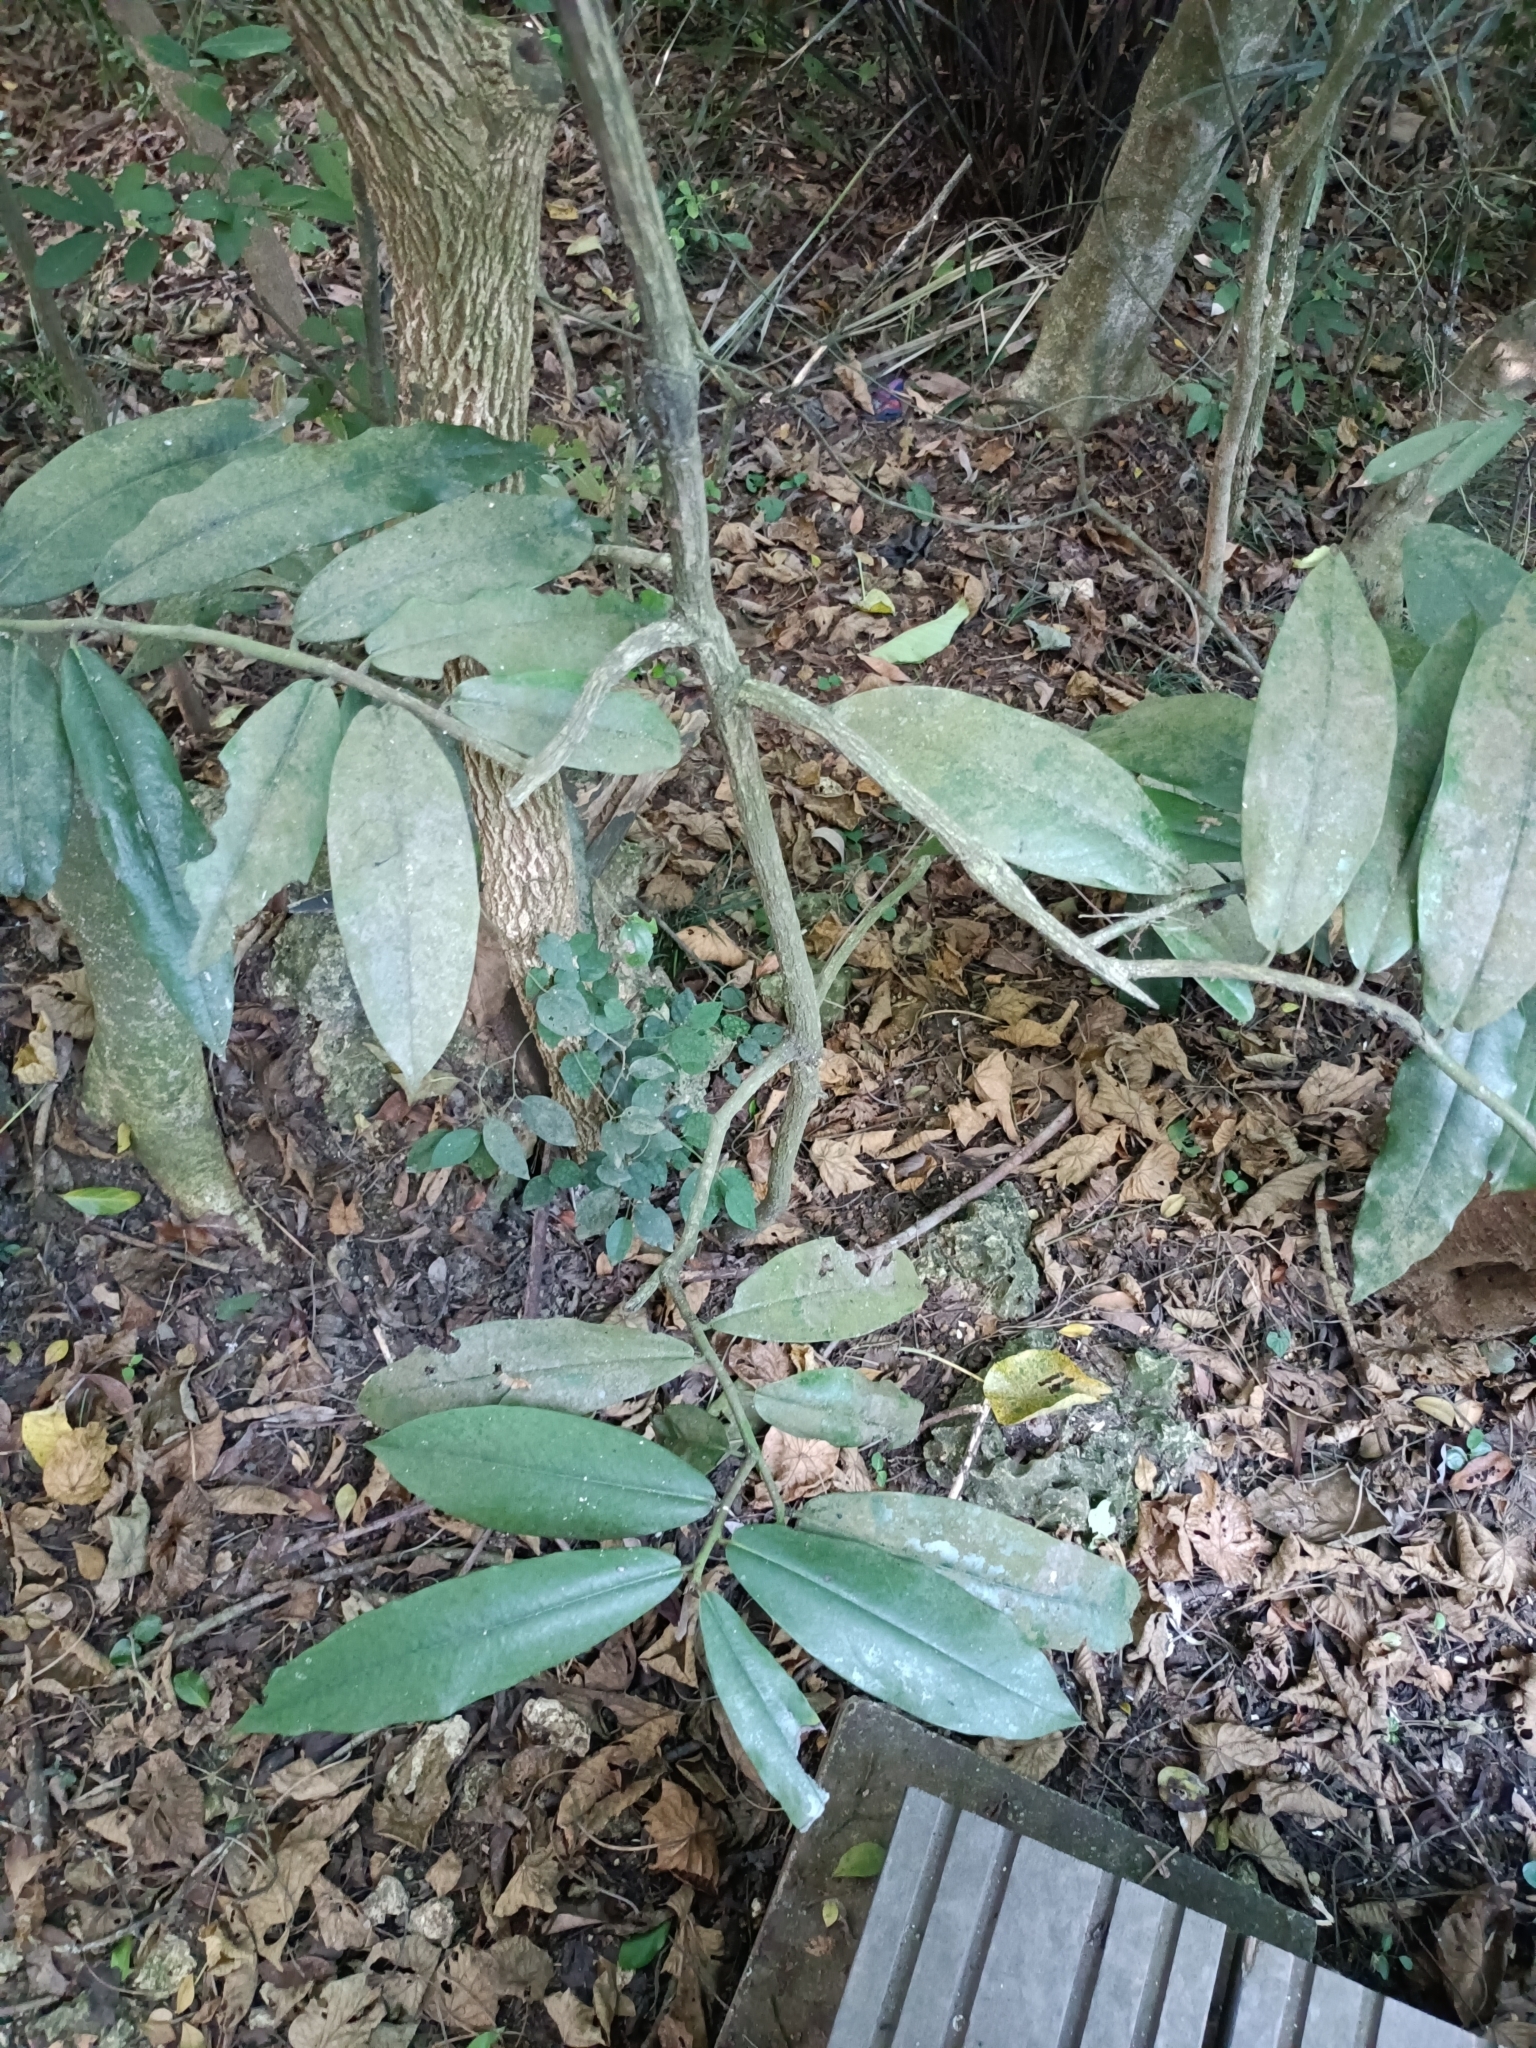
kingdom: Plantae
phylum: Tracheophyta
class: Magnoliopsida
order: Ericales
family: Ebenaceae
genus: Diospyros
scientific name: Diospyros blancoi
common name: Mabola-tree
